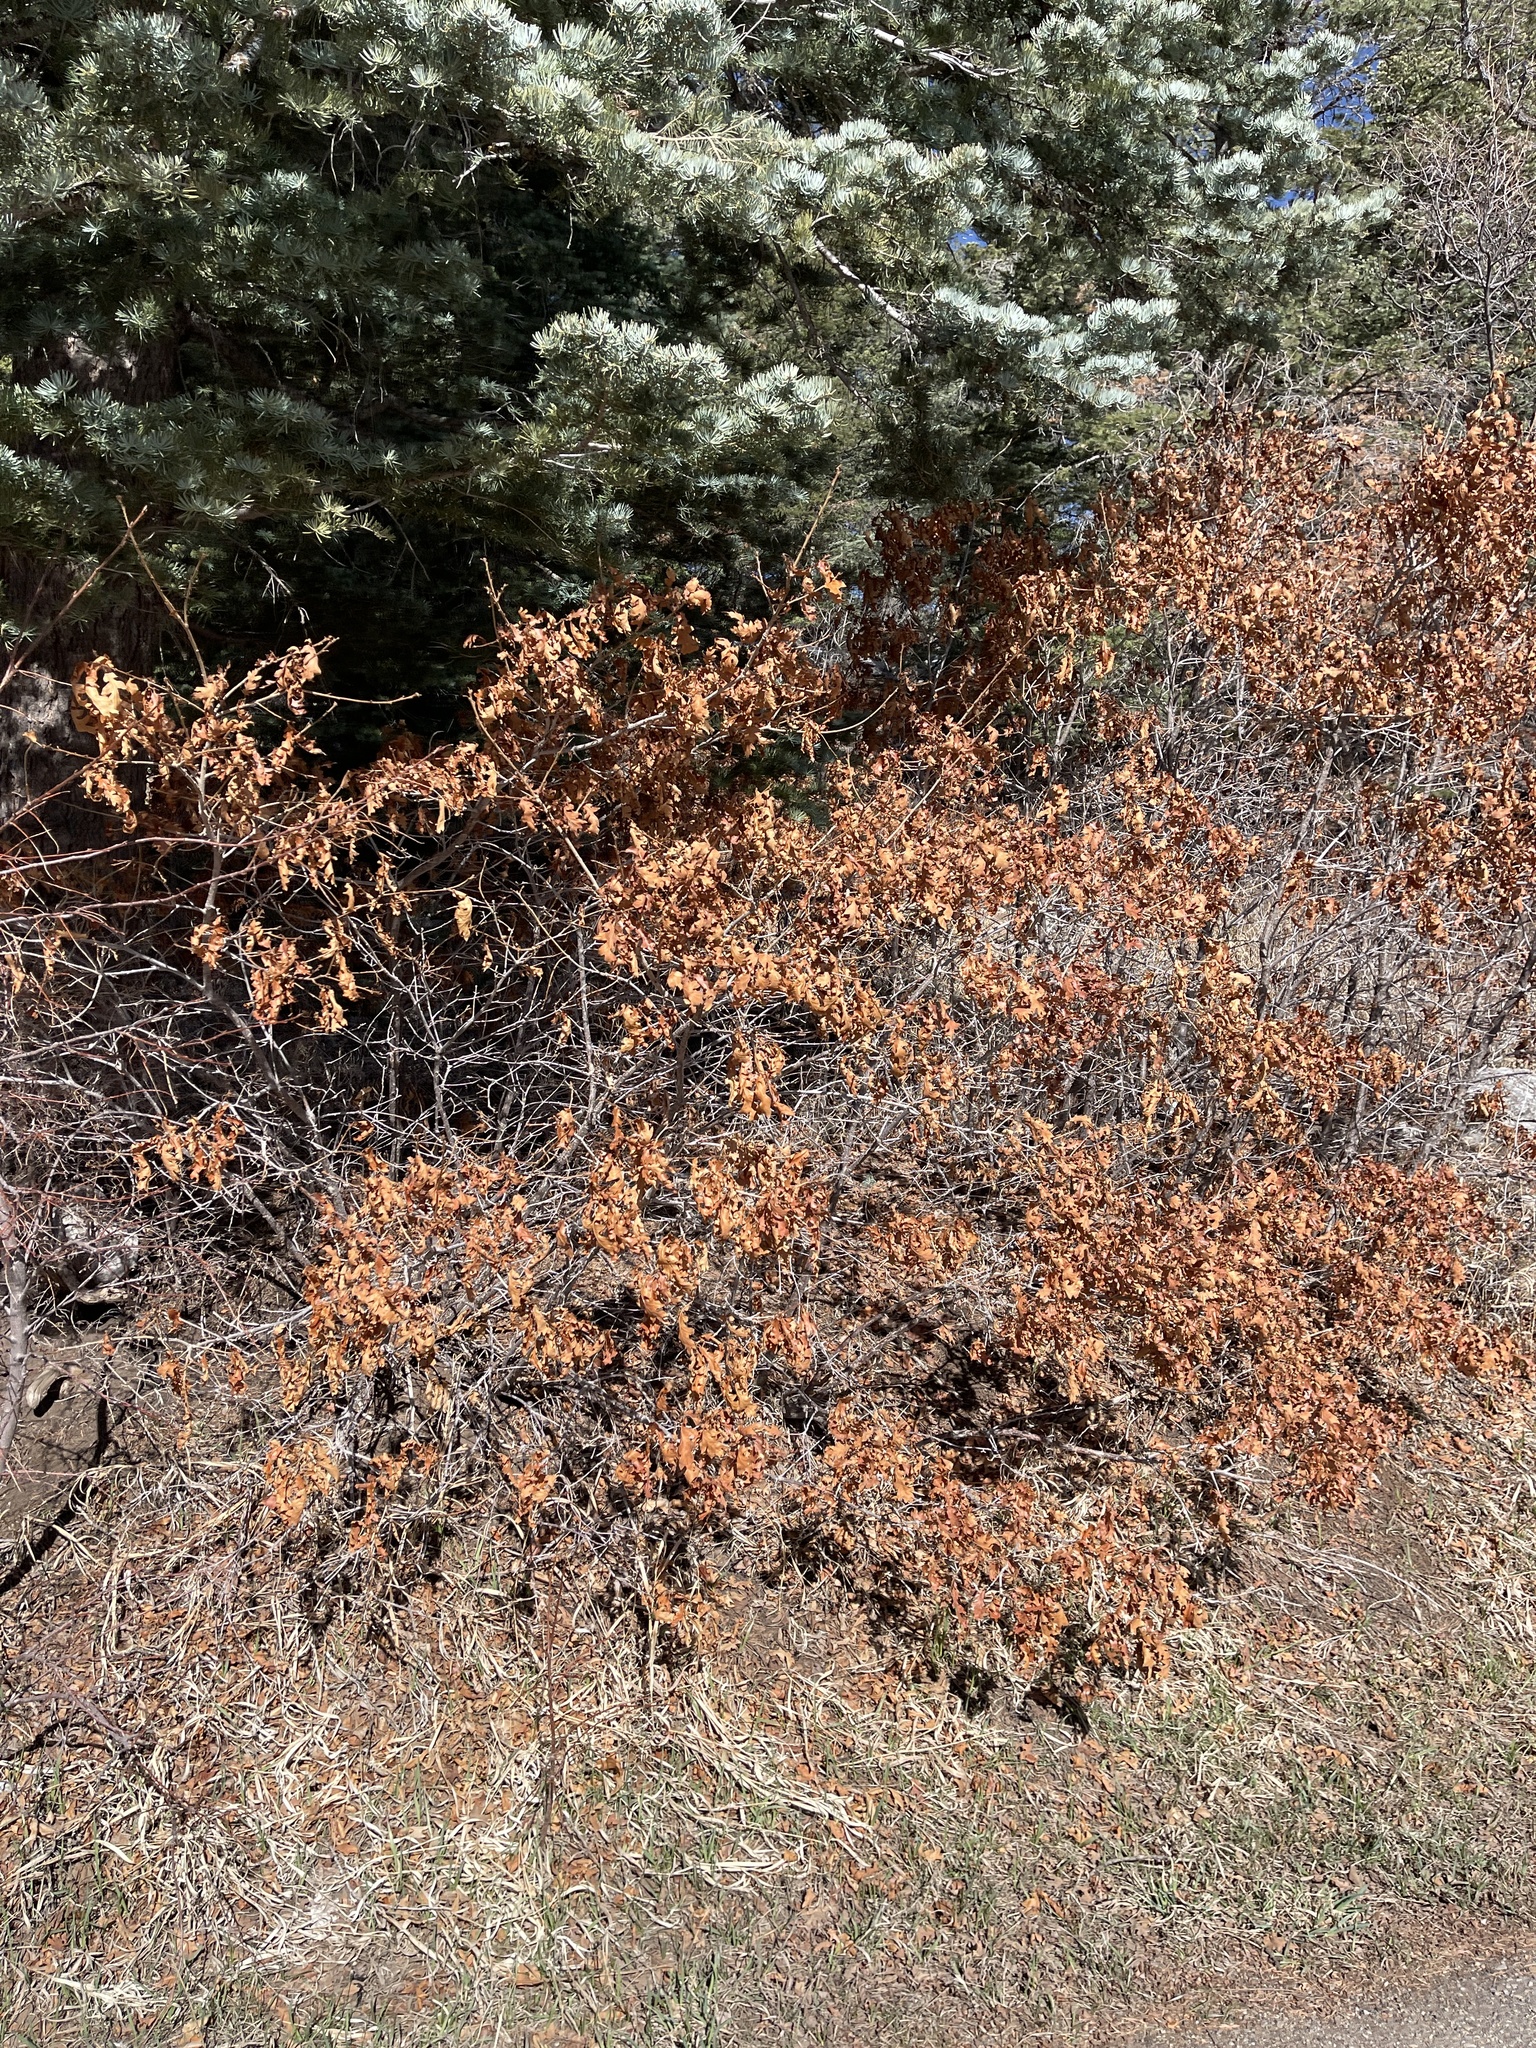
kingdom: Plantae
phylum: Tracheophyta
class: Magnoliopsida
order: Fagales
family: Fagaceae
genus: Quercus
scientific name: Quercus gambelii
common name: Gambel oak
